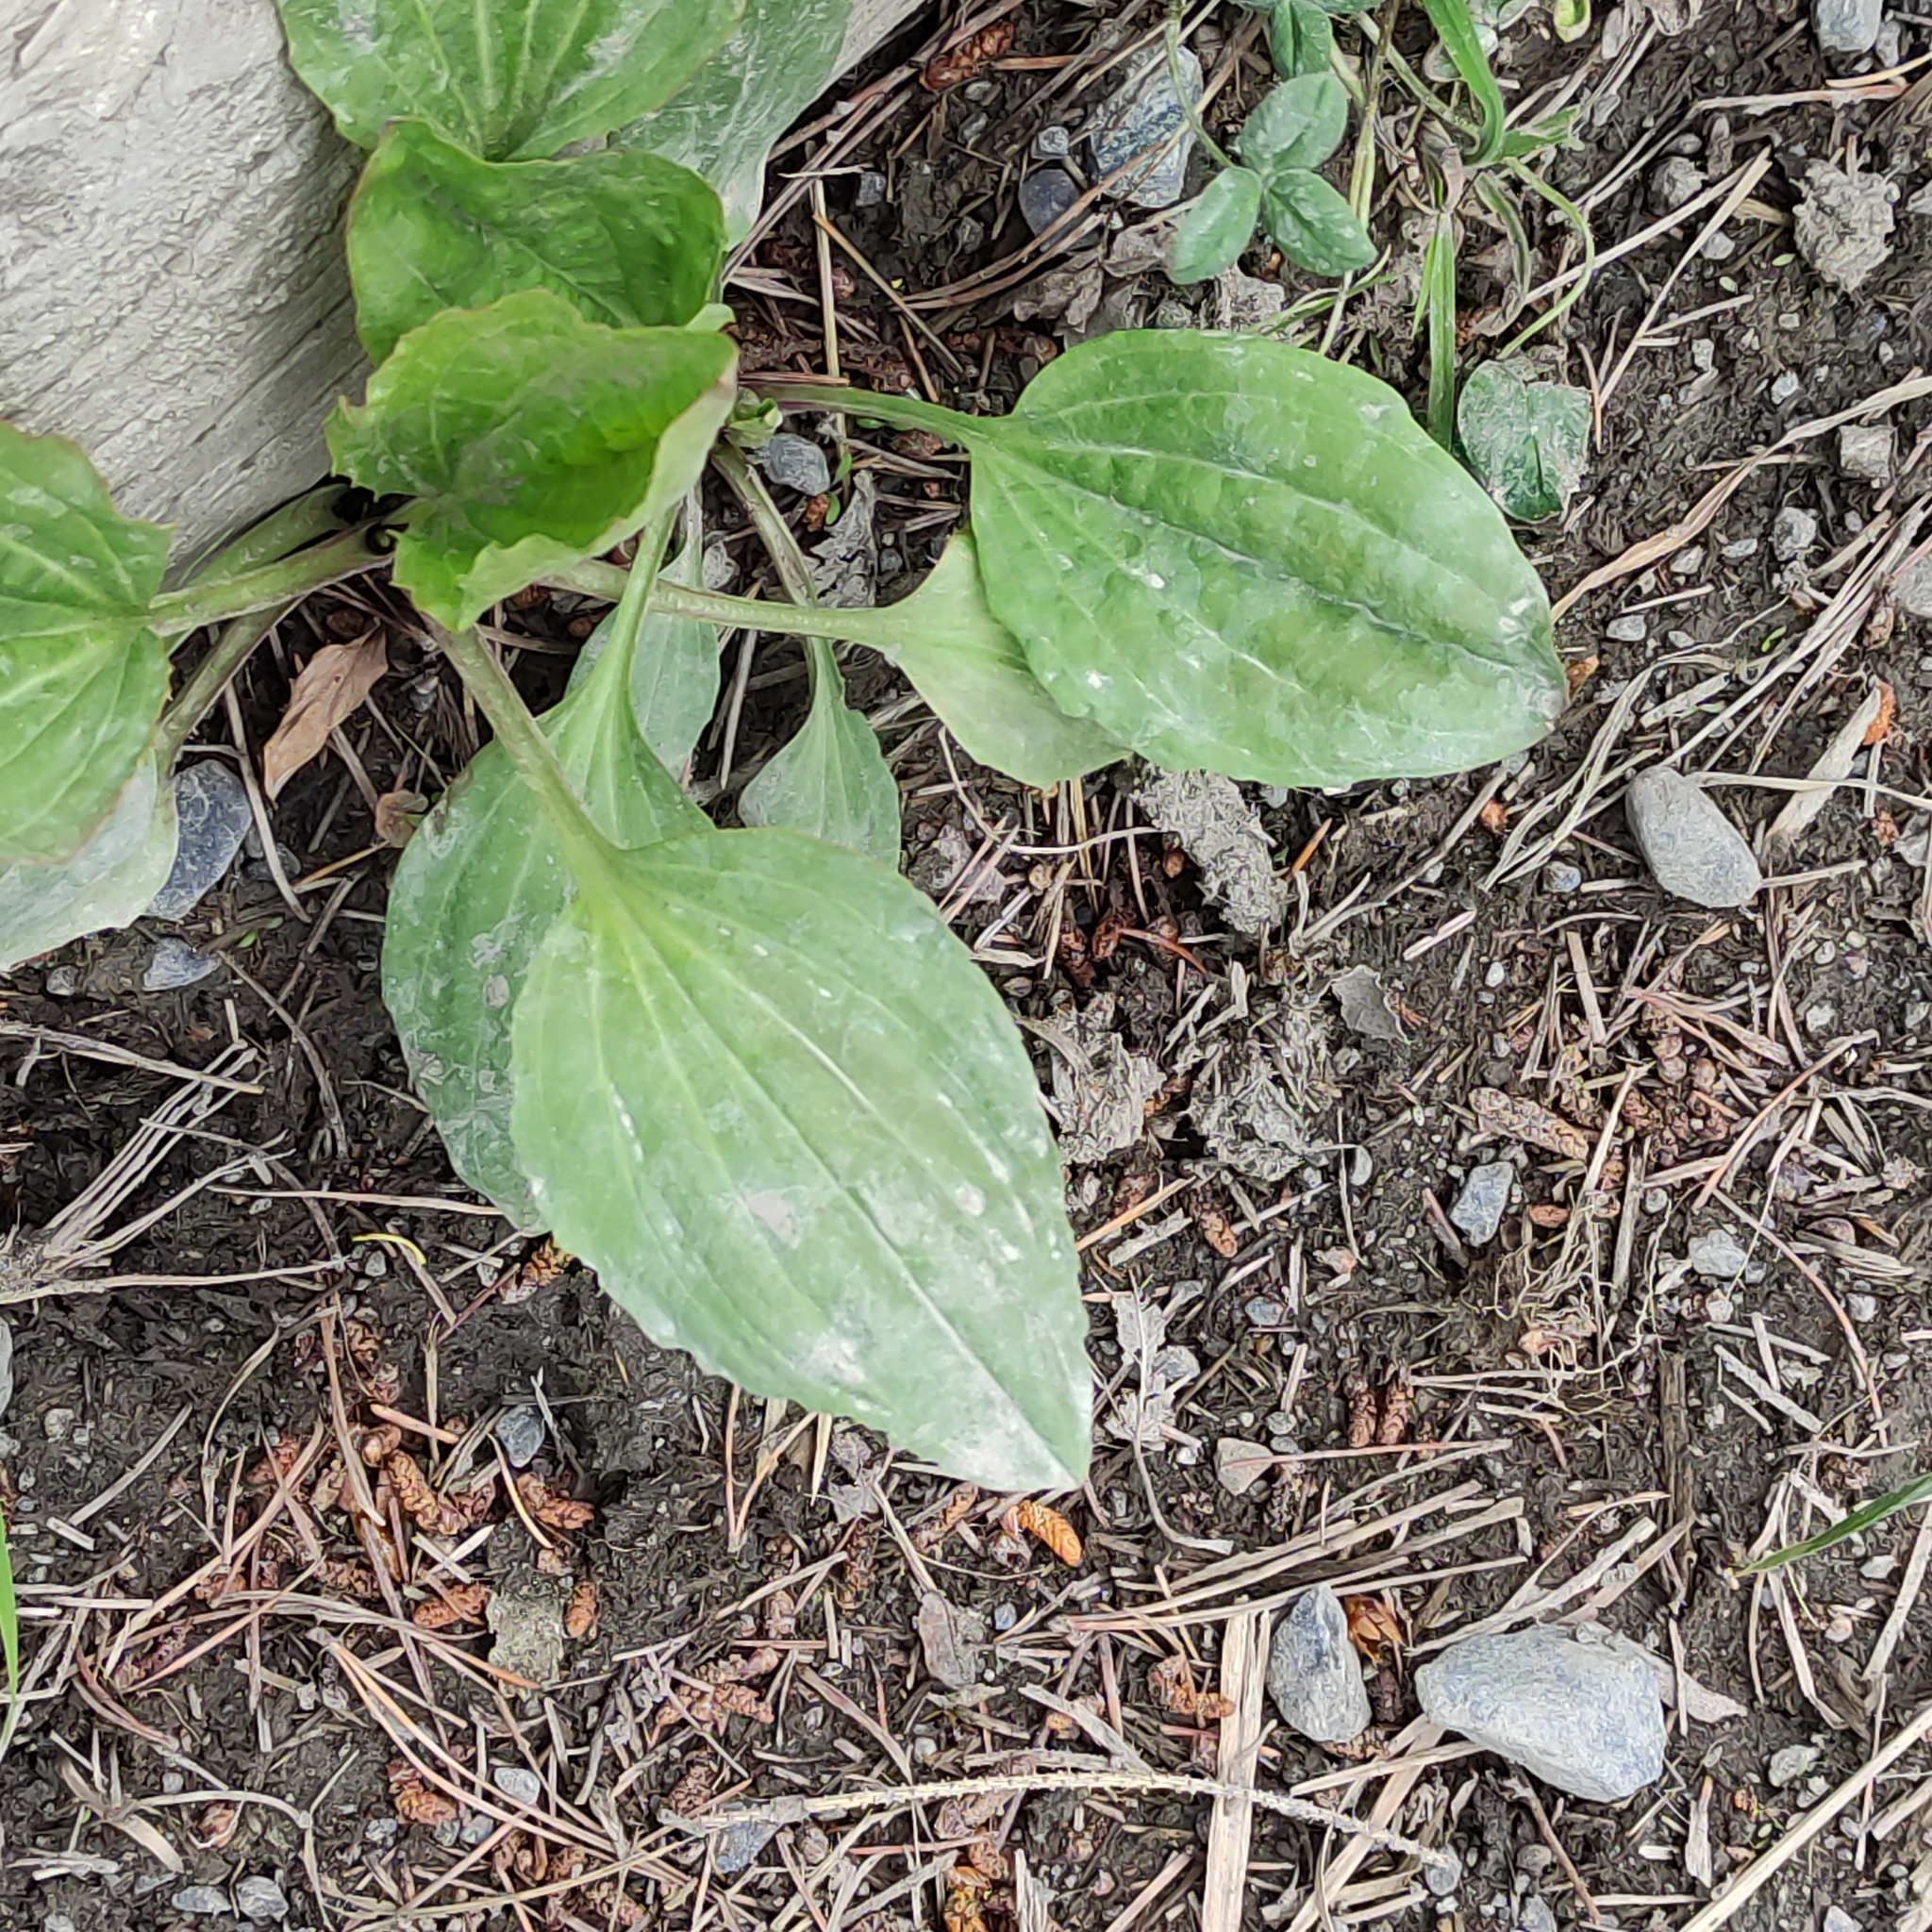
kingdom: Plantae
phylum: Tracheophyta
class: Magnoliopsida
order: Lamiales
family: Plantaginaceae
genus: Plantago
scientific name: Plantago major
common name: Common plantain
